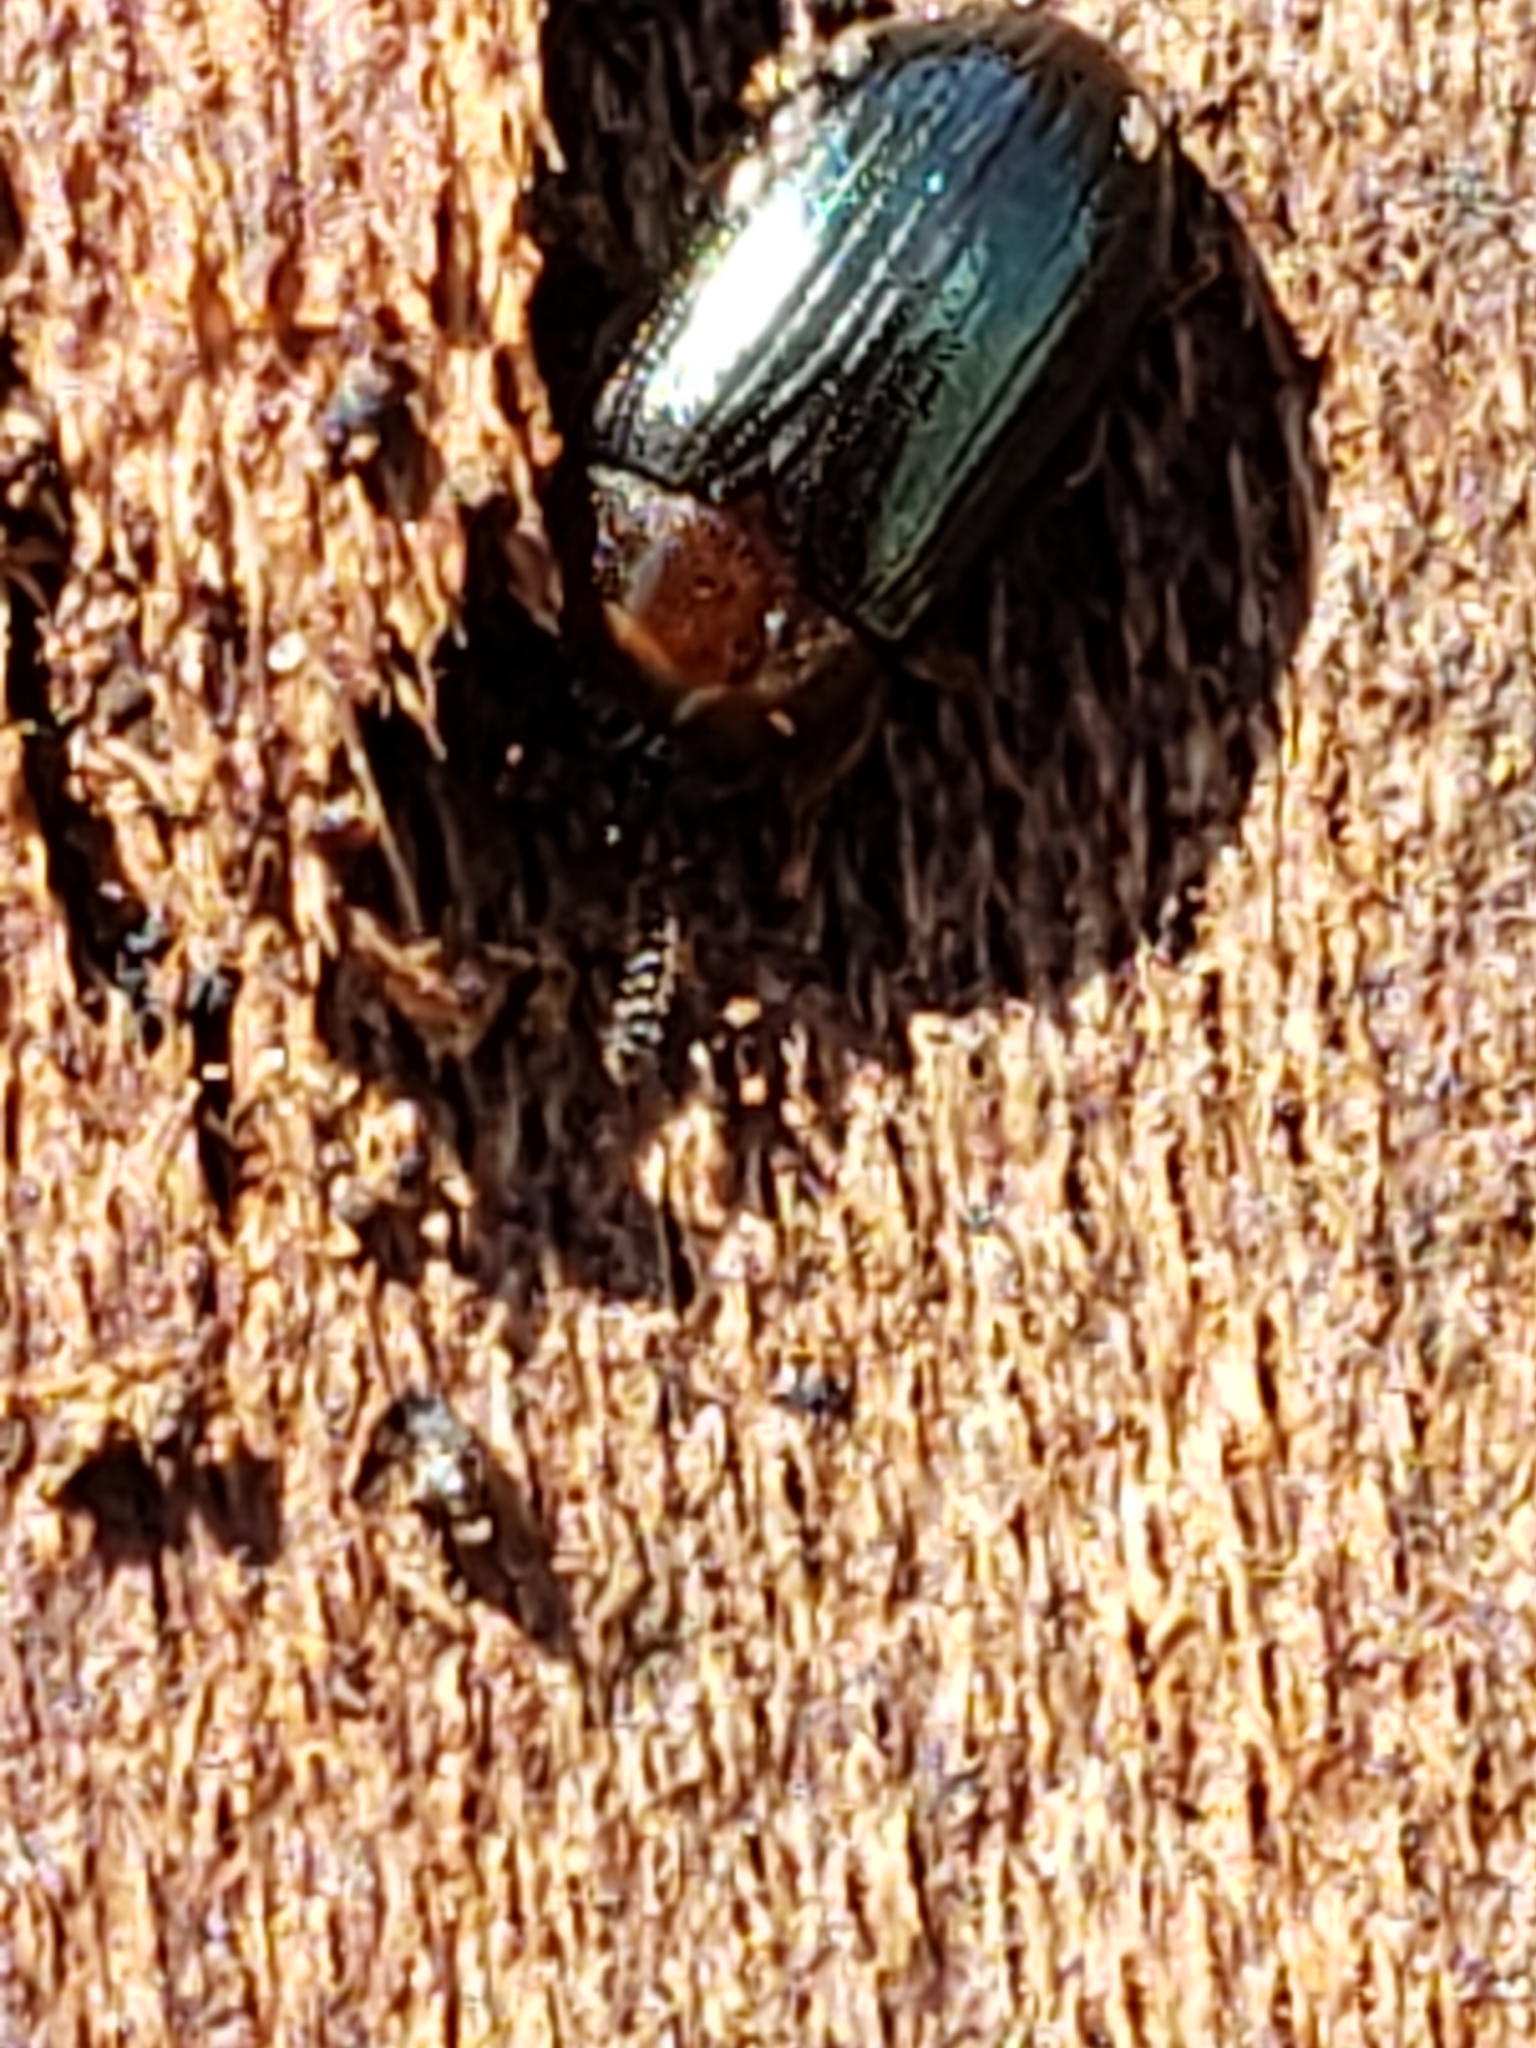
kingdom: Animalia
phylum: Arthropoda
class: Insecta
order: Coleoptera
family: Tenebrionidae
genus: Neomida
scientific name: Neomida bicornis
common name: Two-horned darkling beetle
